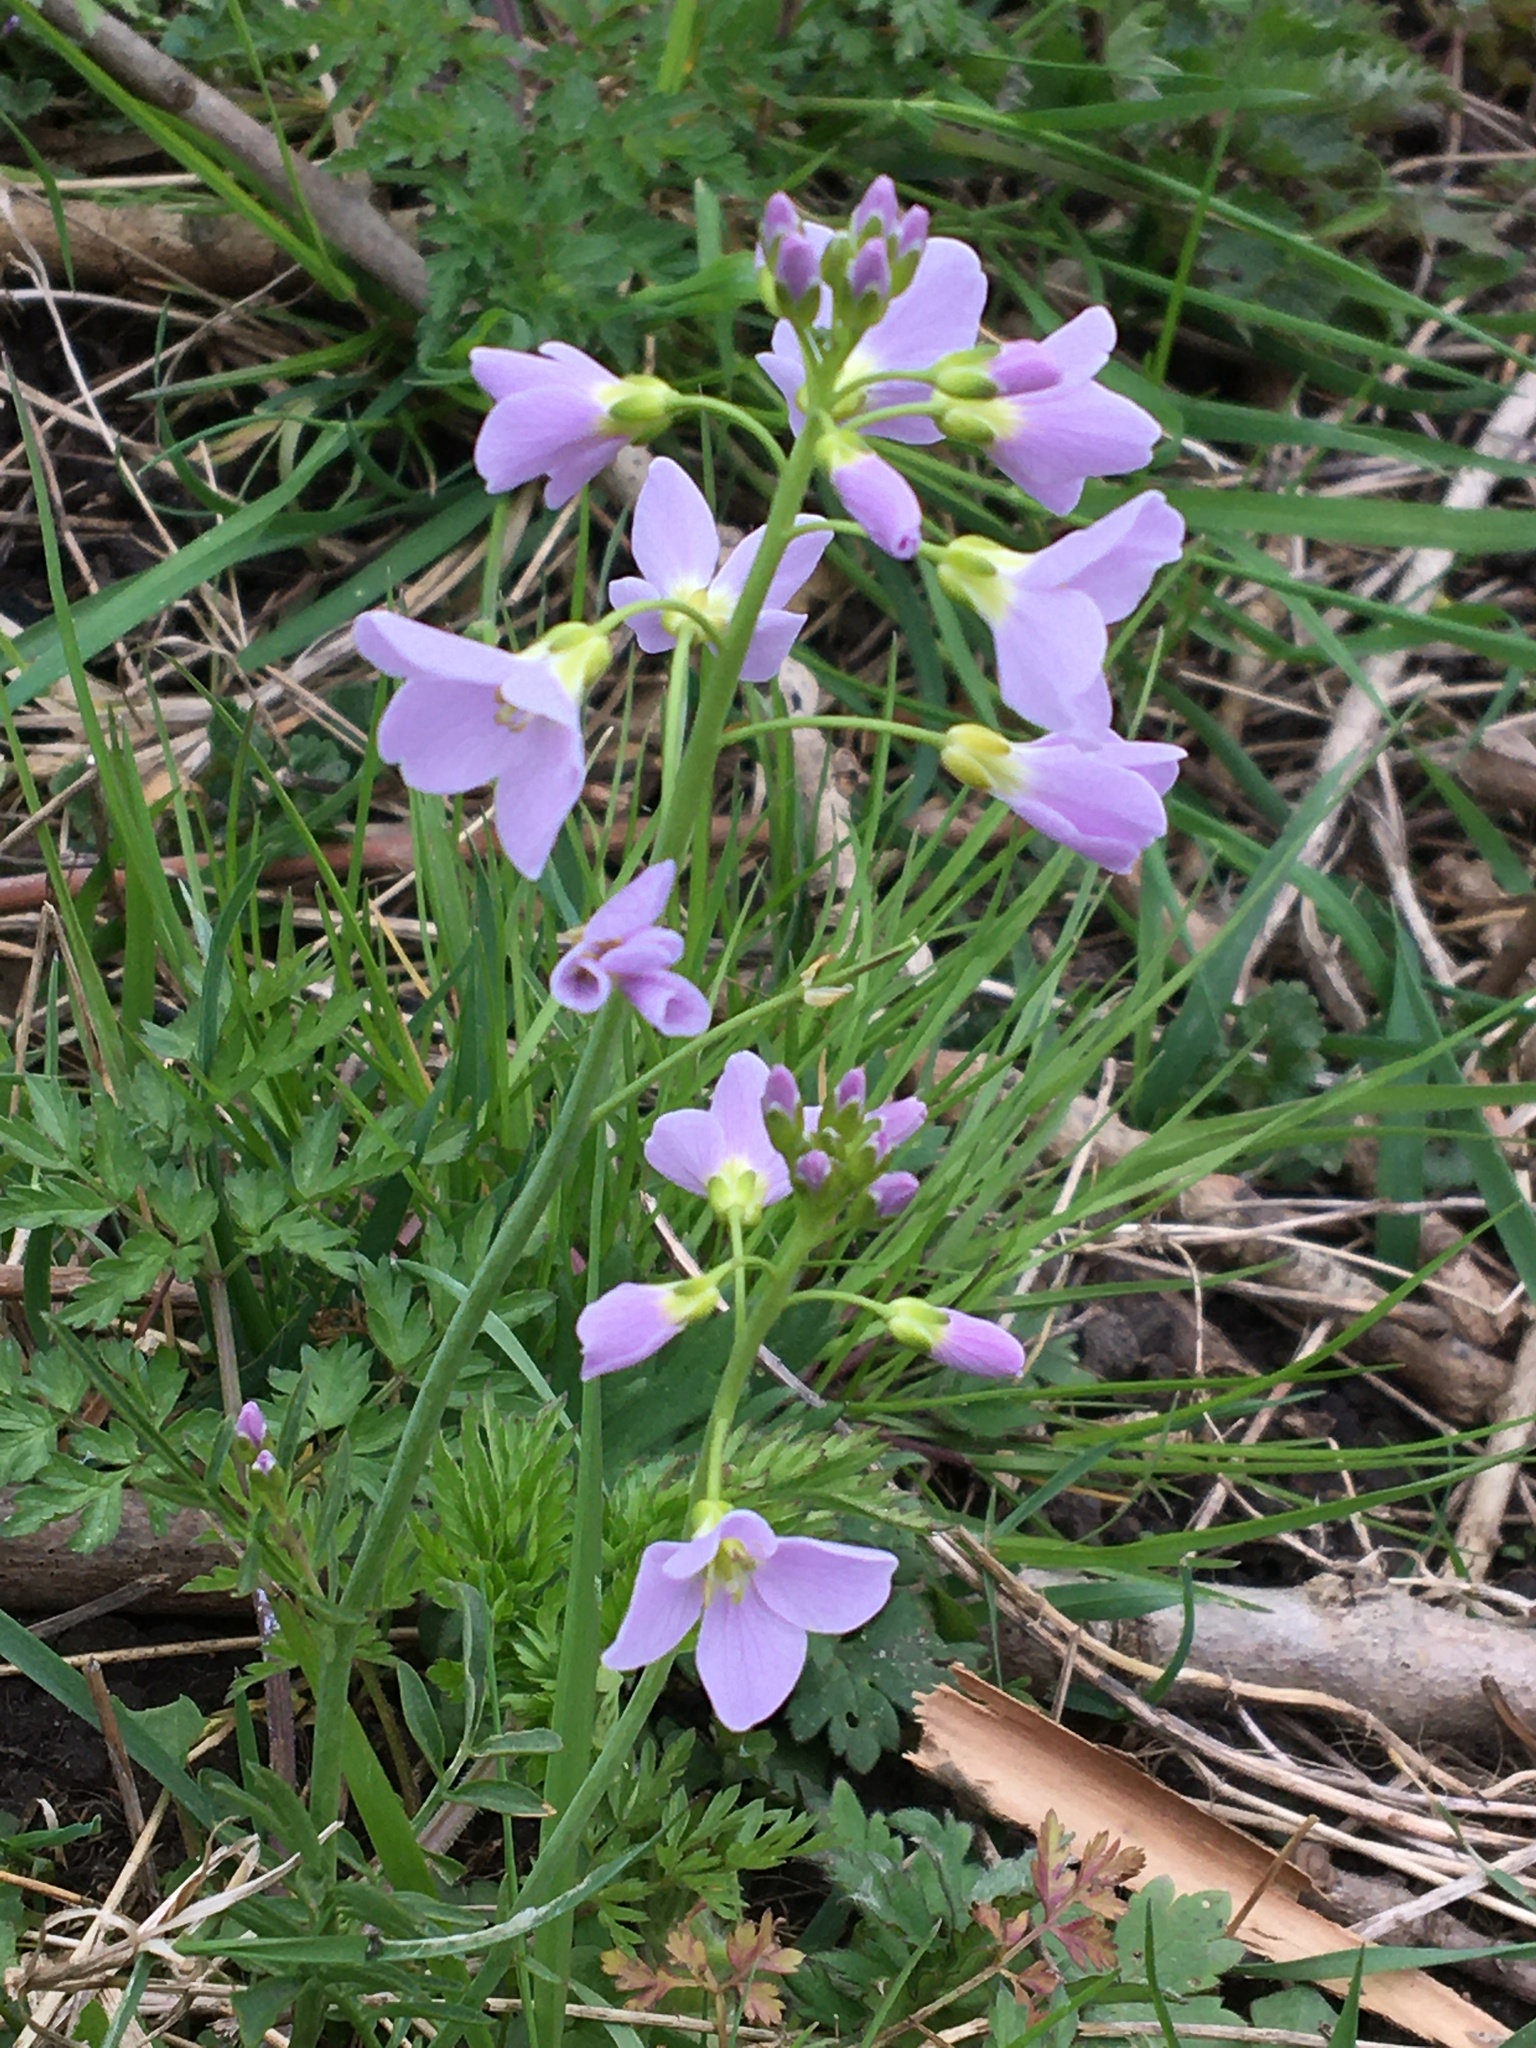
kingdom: Plantae
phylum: Tracheophyta
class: Magnoliopsida
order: Brassicales
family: Brassicaceae
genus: Cardamine
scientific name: Cardamine pratensis
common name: Cuckoo flower
